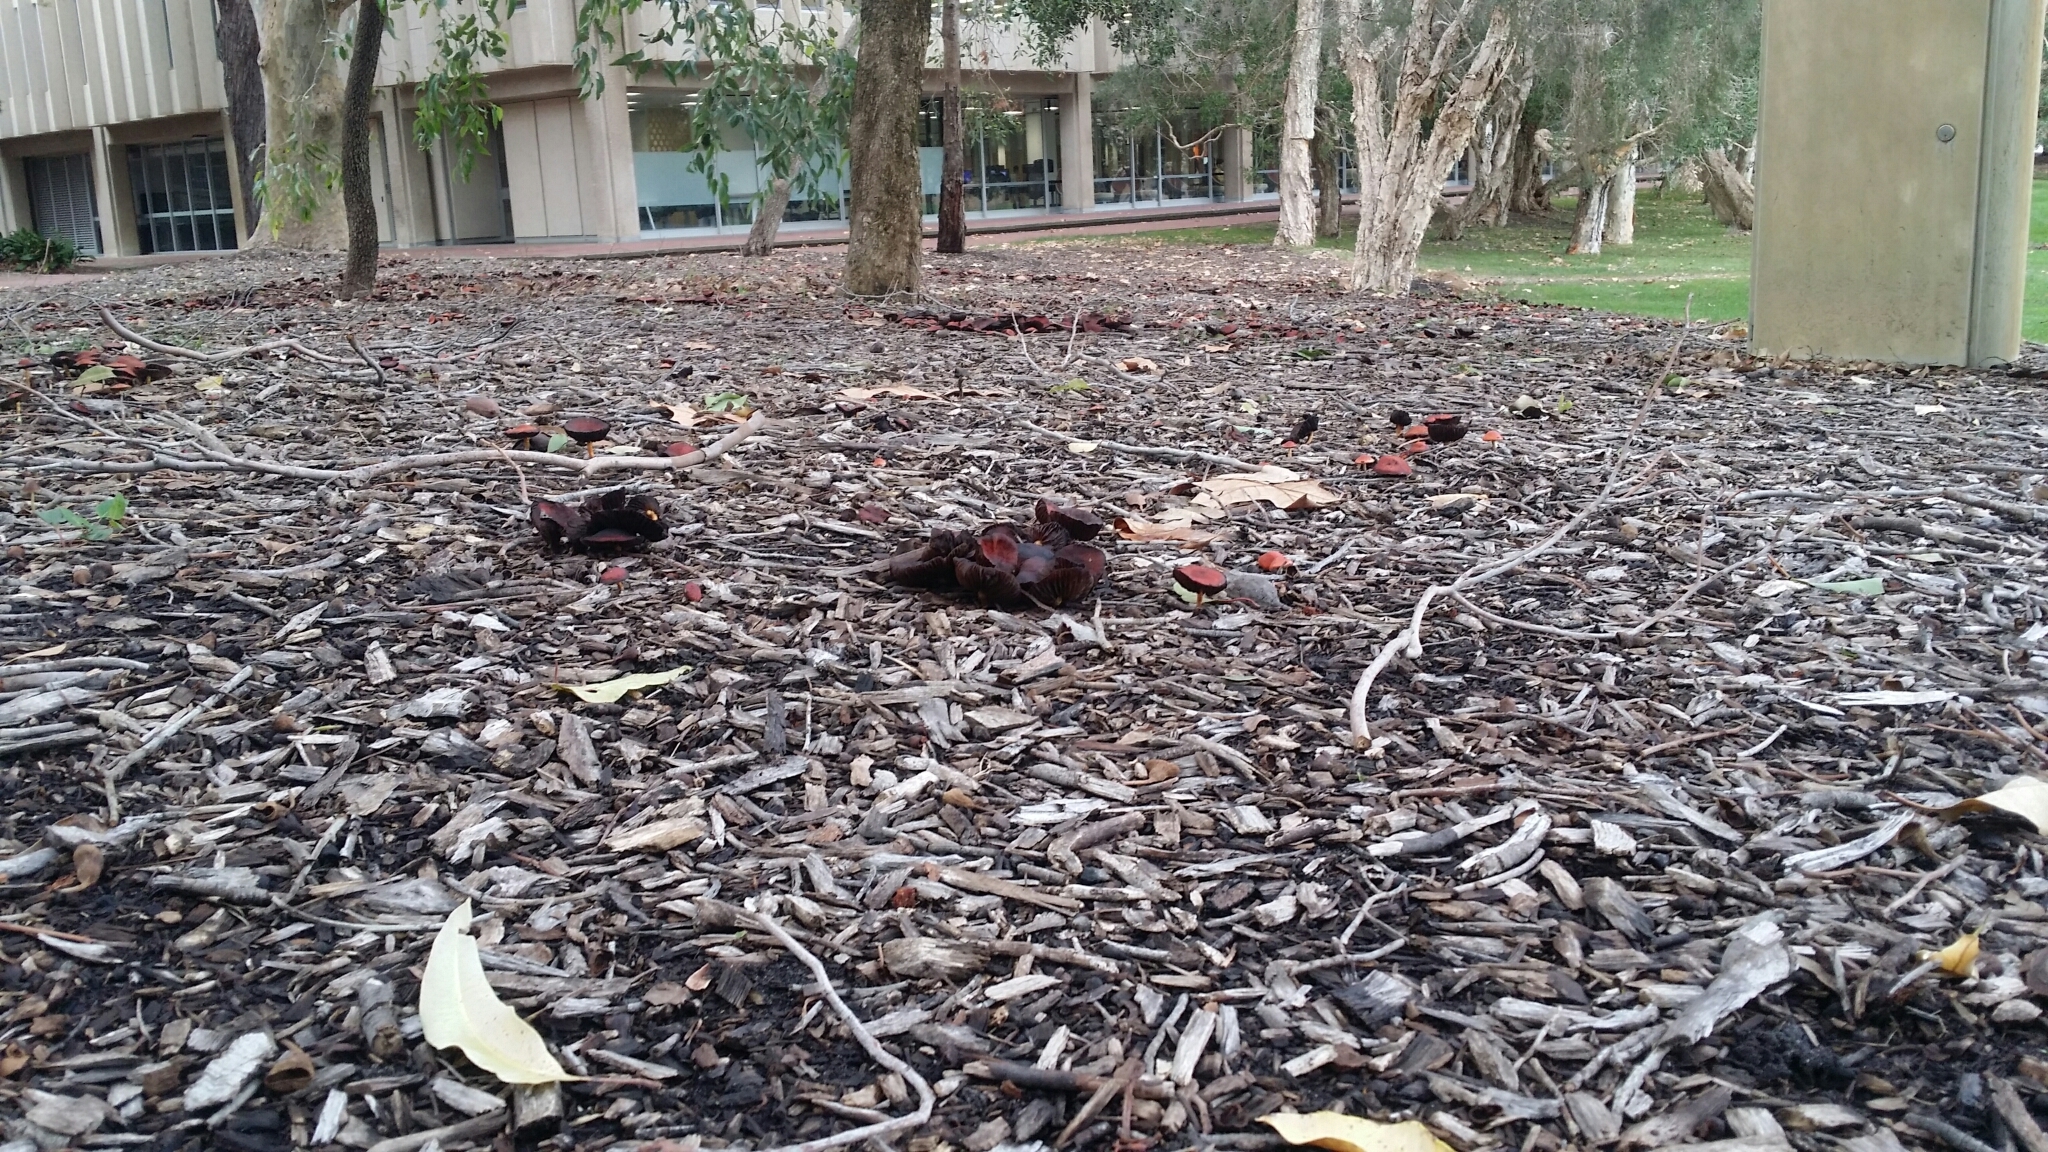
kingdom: Fungi
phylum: Basidiomycota
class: Agaricomycetes
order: Agaricales
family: Strophariaceae
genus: Leratiomyces
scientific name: Leratiomyces ceres
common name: Redlead roundhead
